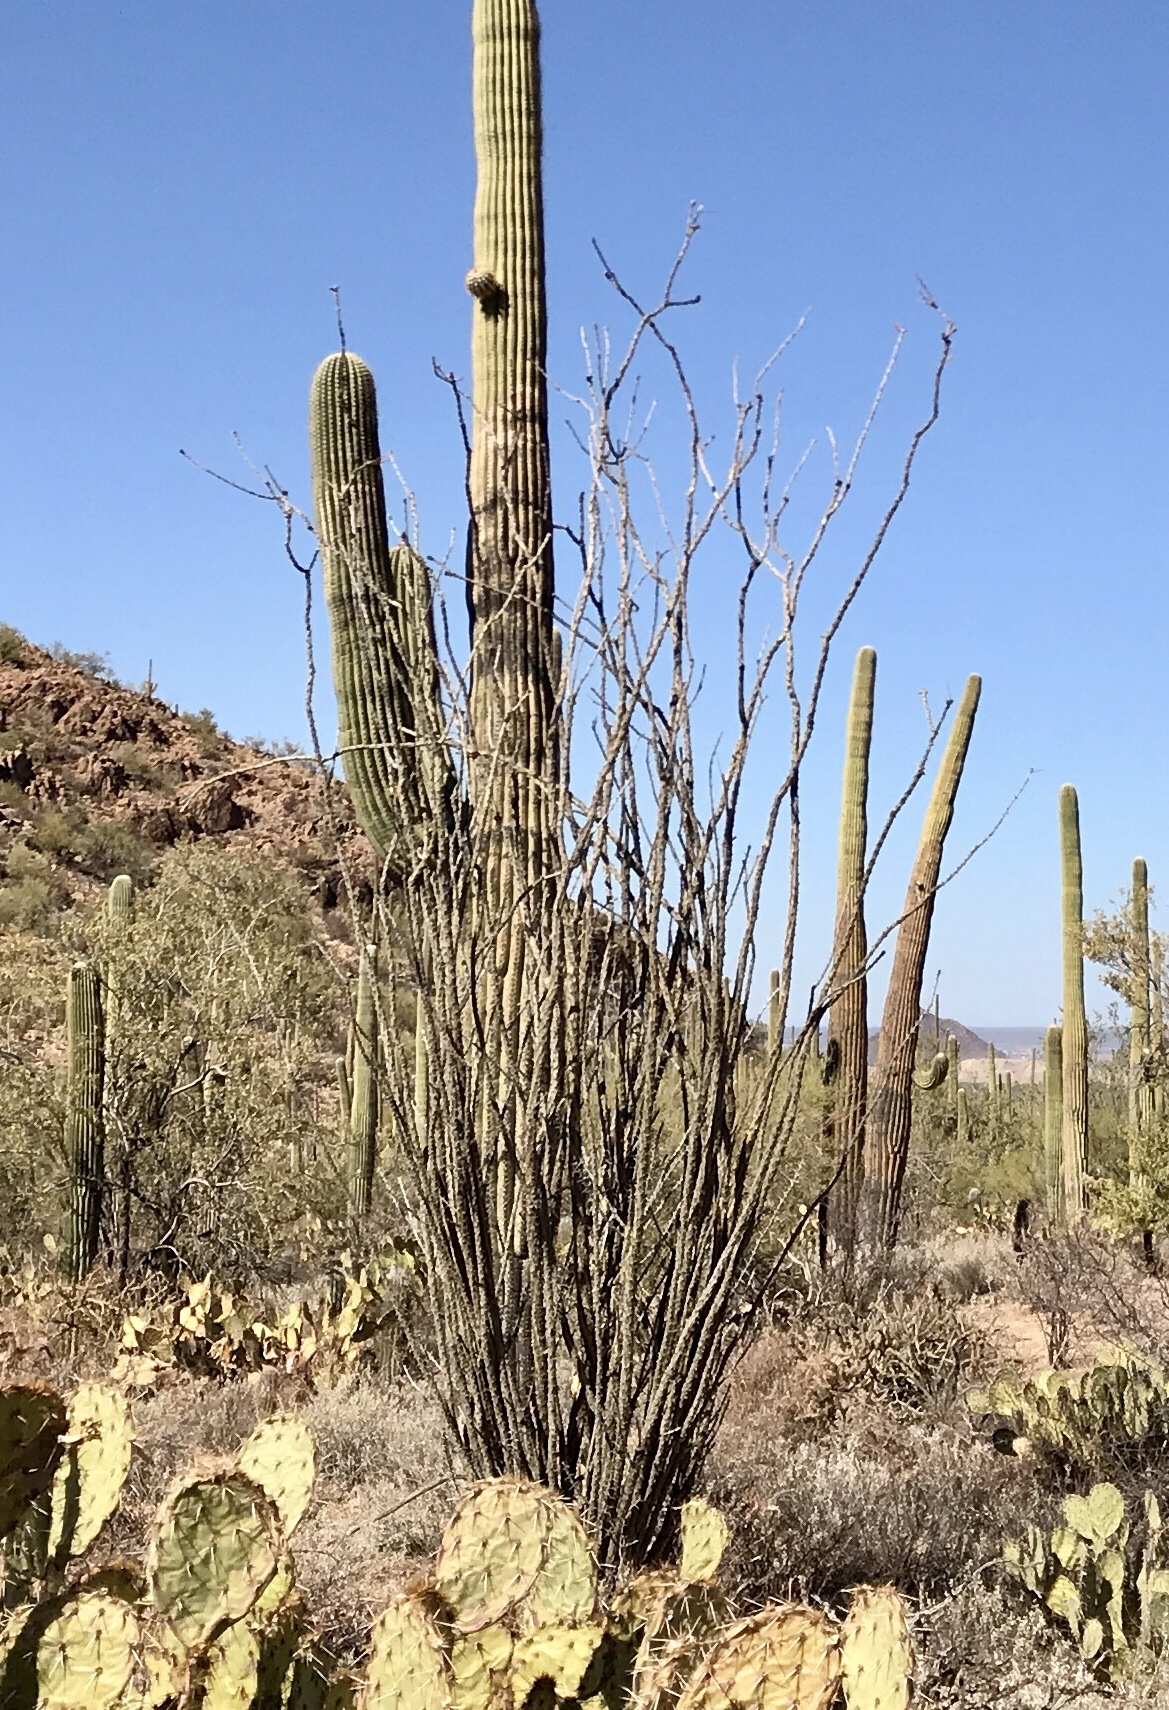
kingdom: Plantae
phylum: Tracheophyta
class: Magnoliopsida
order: Ericales
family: Fouquieriaceae
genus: Fouquieria
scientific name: Fouquieria splendens
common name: Vine-cactus
